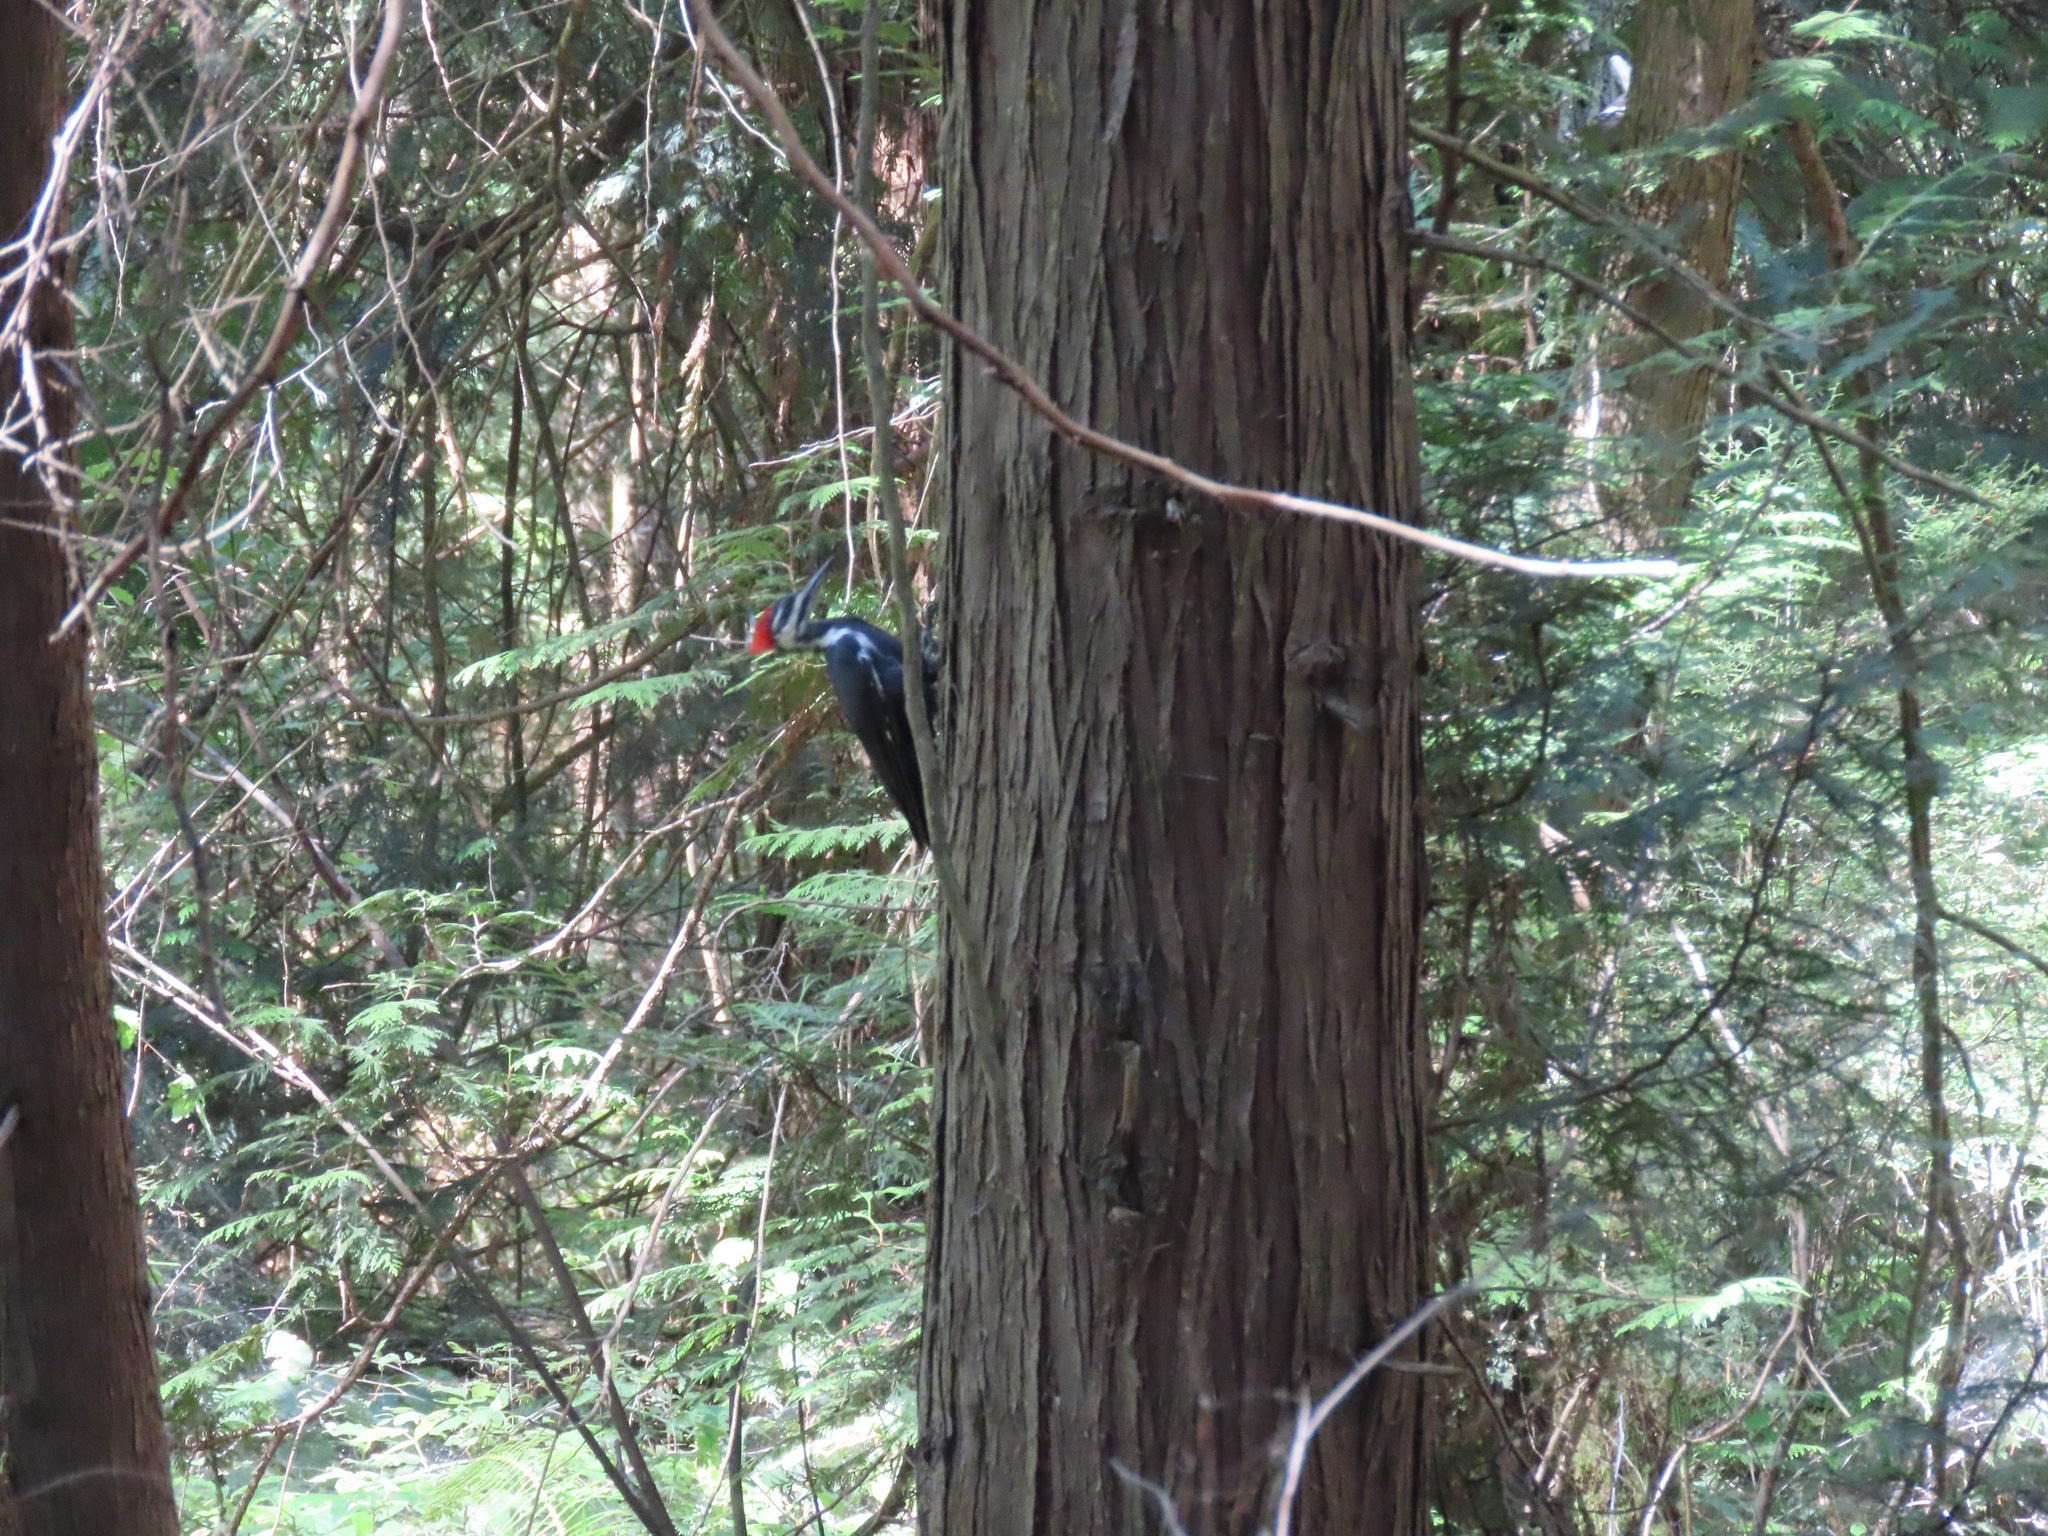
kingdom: Animalia
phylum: Chordata
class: Aves
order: Piciformes
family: Picidae
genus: Dryocopus
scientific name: Dryocopus pileatus
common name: Pileated woodpecker
